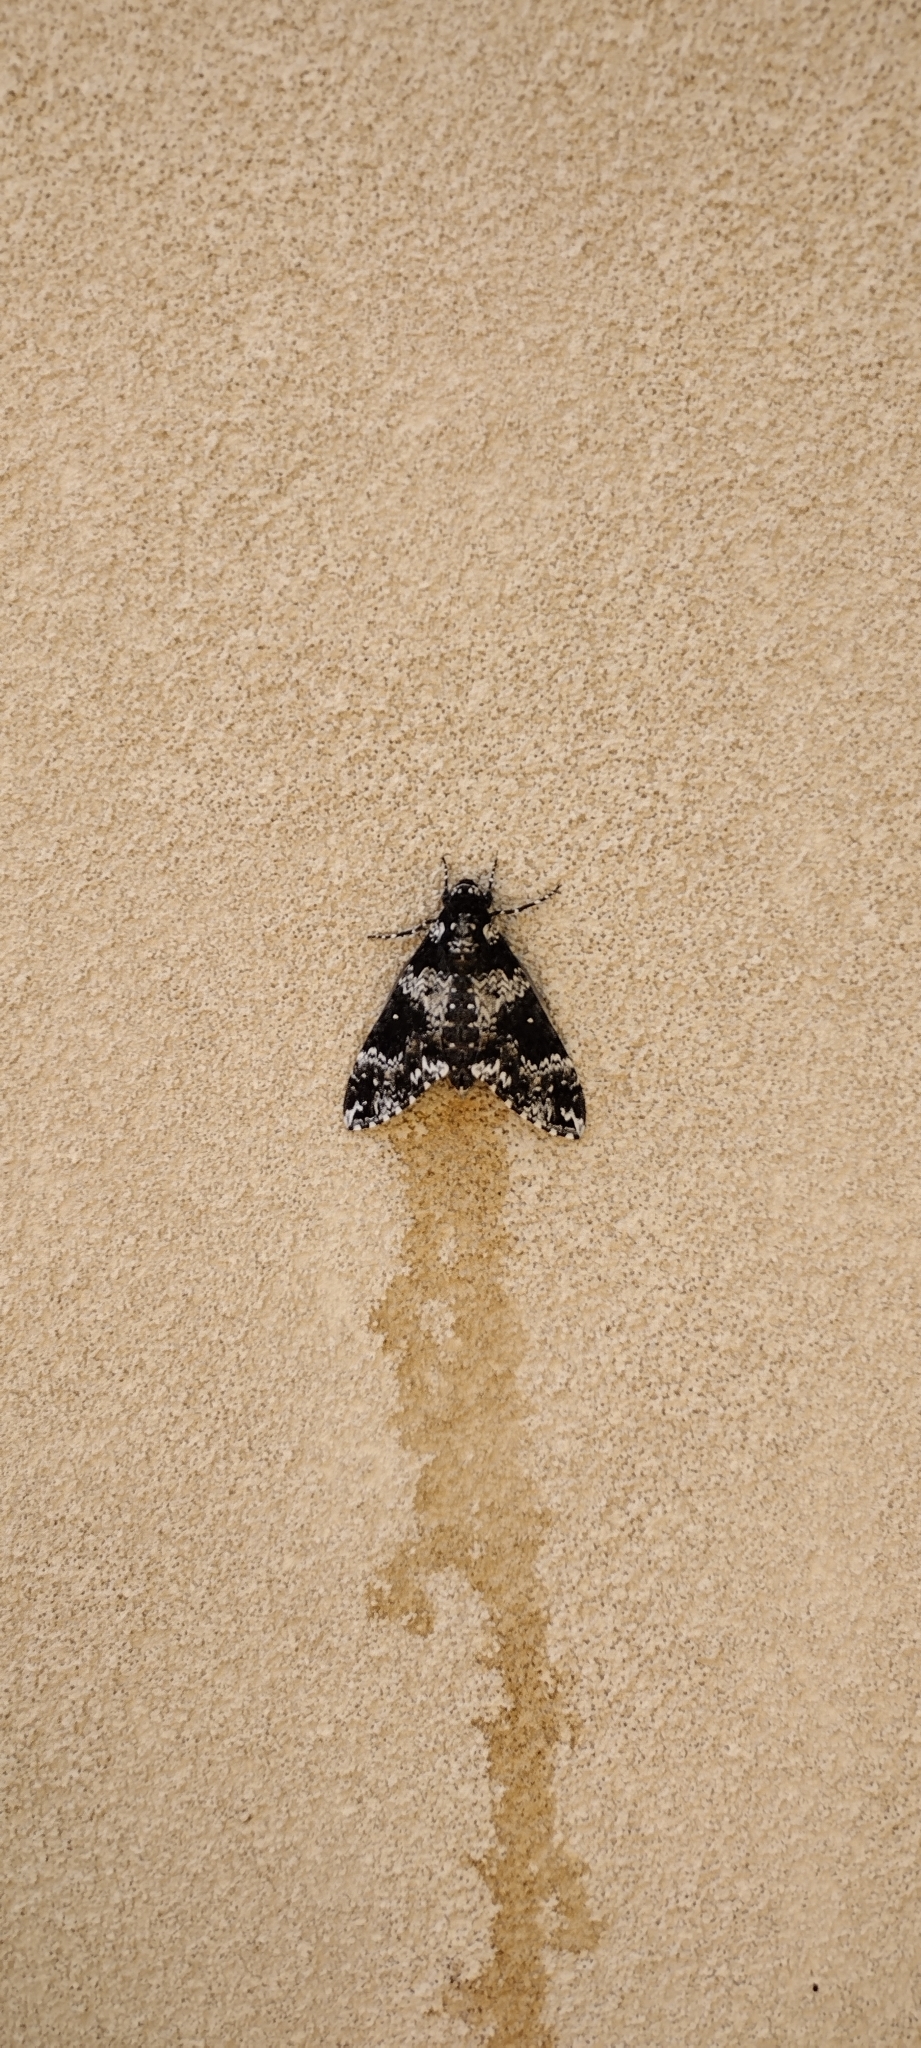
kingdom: Animalia
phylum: Arthropoda
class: Insecta
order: Lepidoptera
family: Sphingidae
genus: Manduca
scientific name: Manduca rustica
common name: Rustic sphinx
